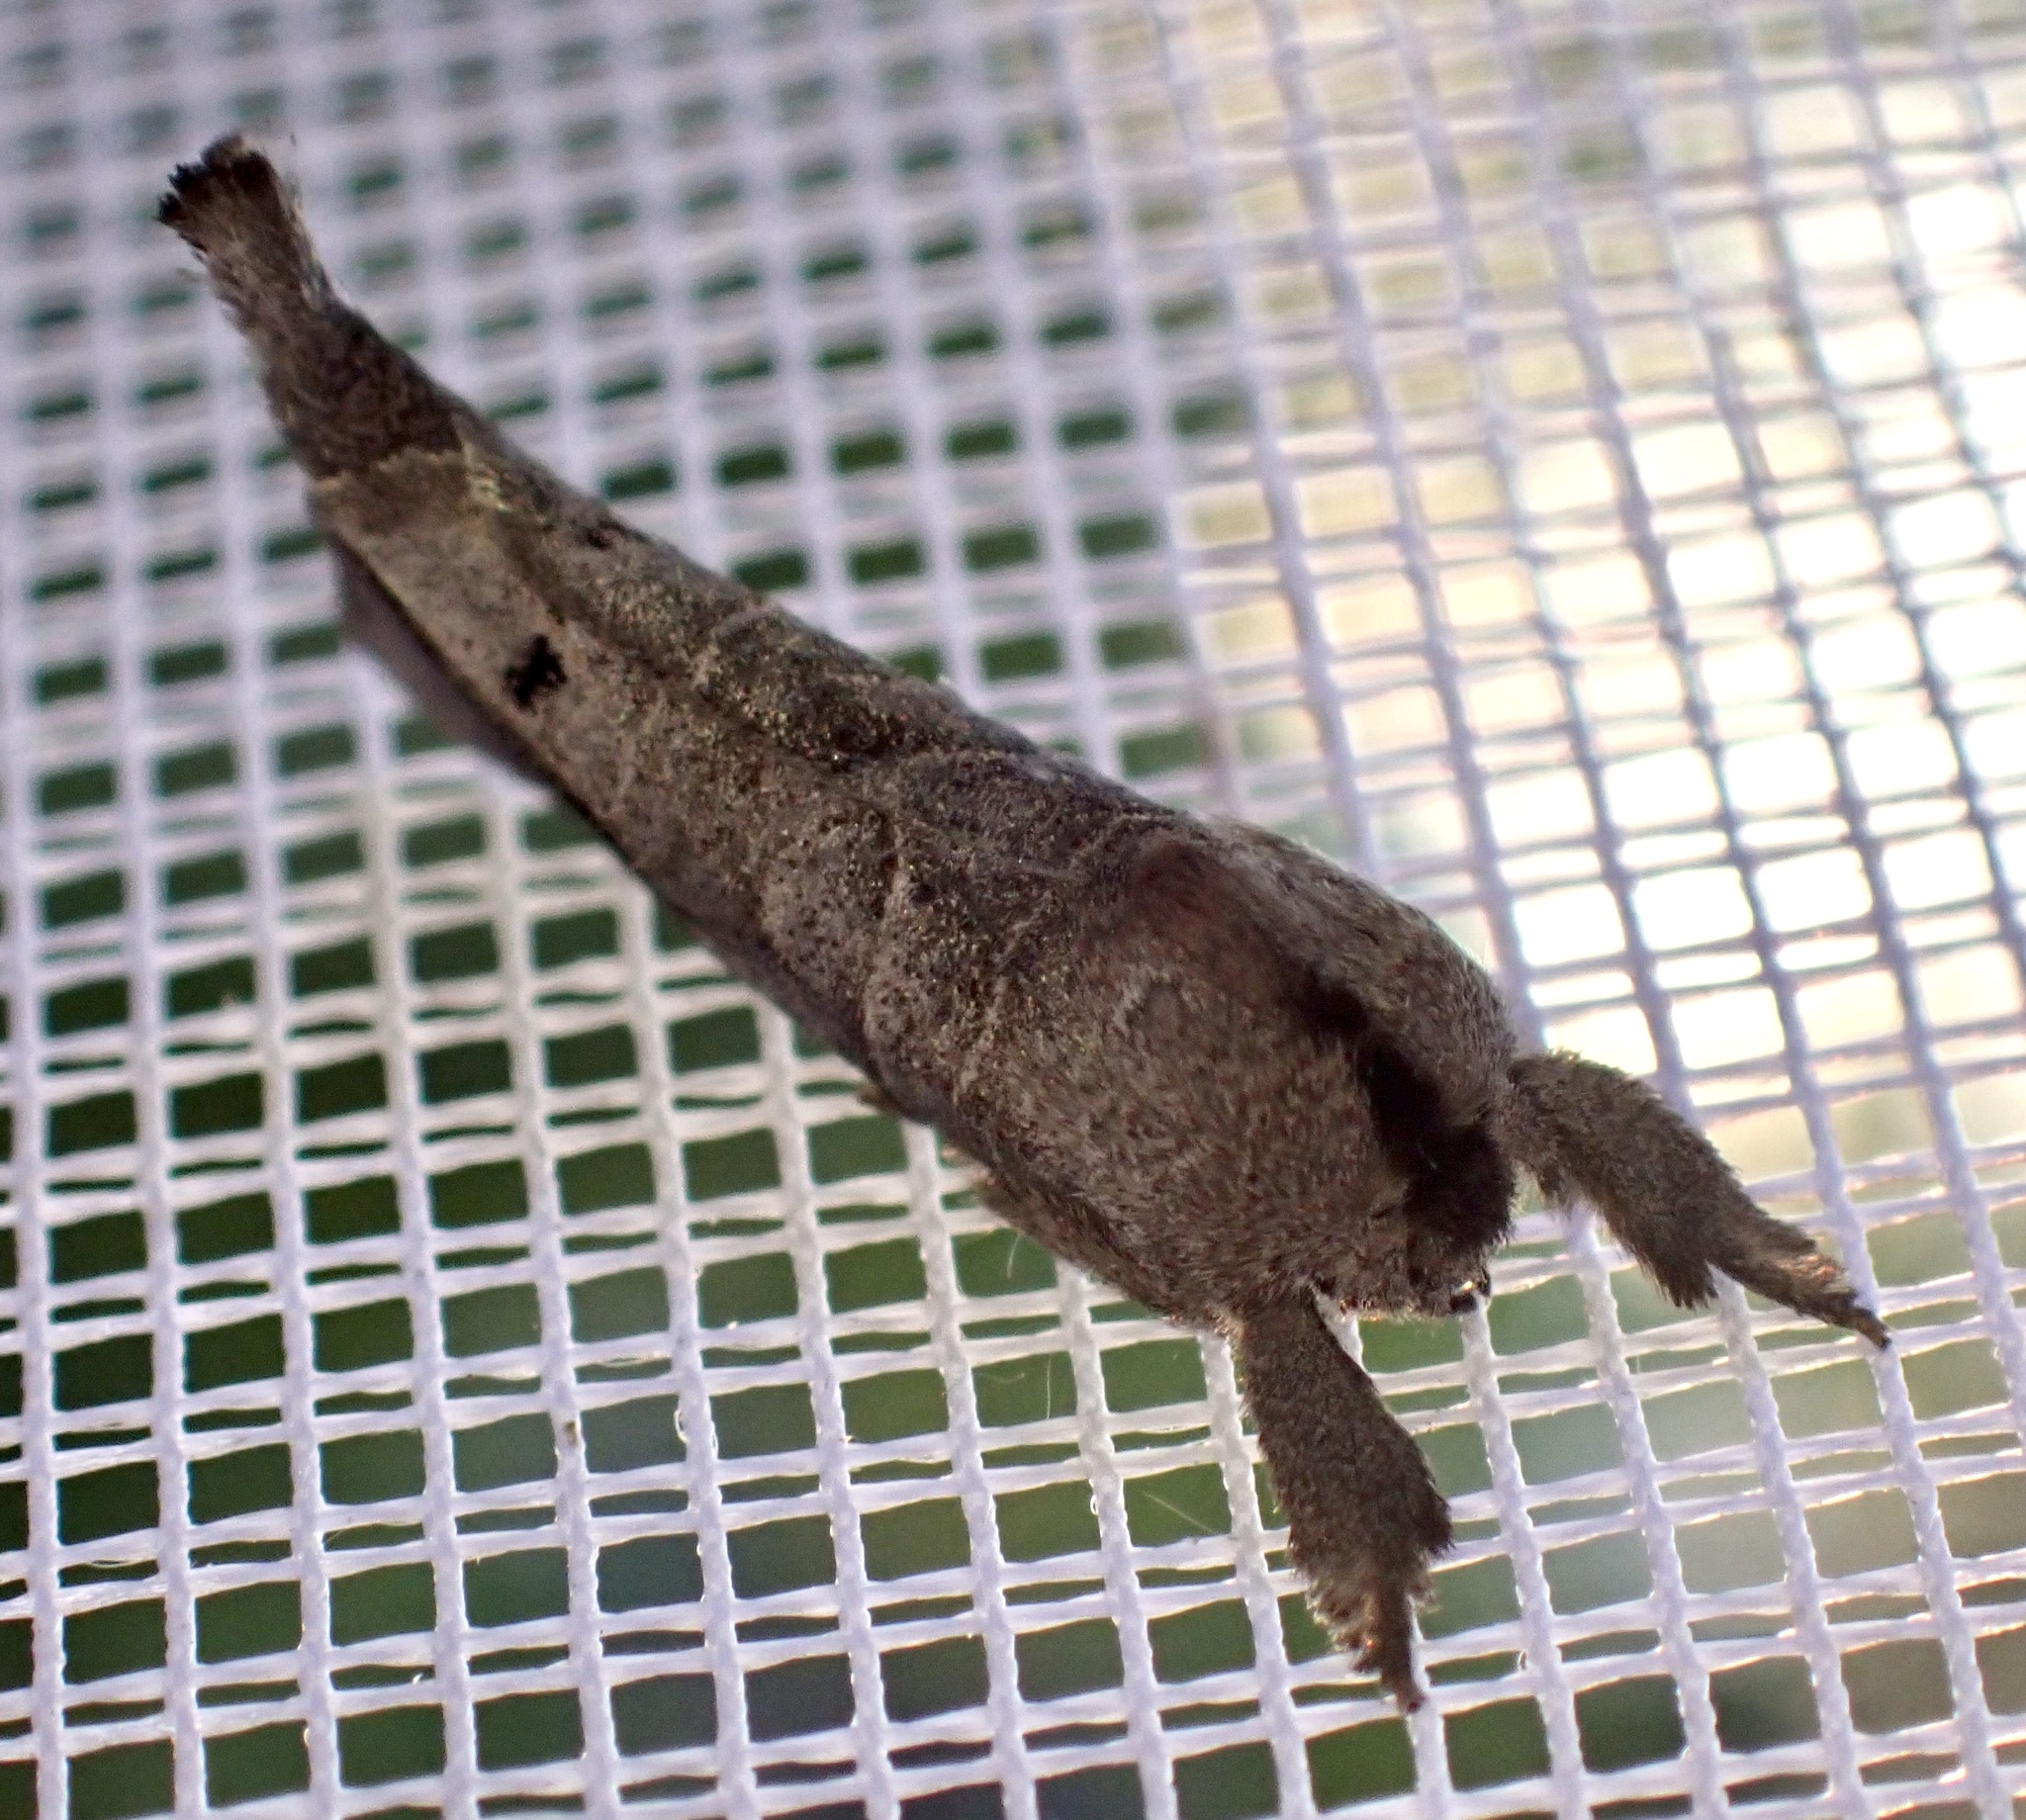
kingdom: Animalia
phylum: Arthropoda
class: Insecta
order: Lepidoptera
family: Notodontidae
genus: Clostera
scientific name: Clostera anachoreta
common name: Scarce chocolate-tip
